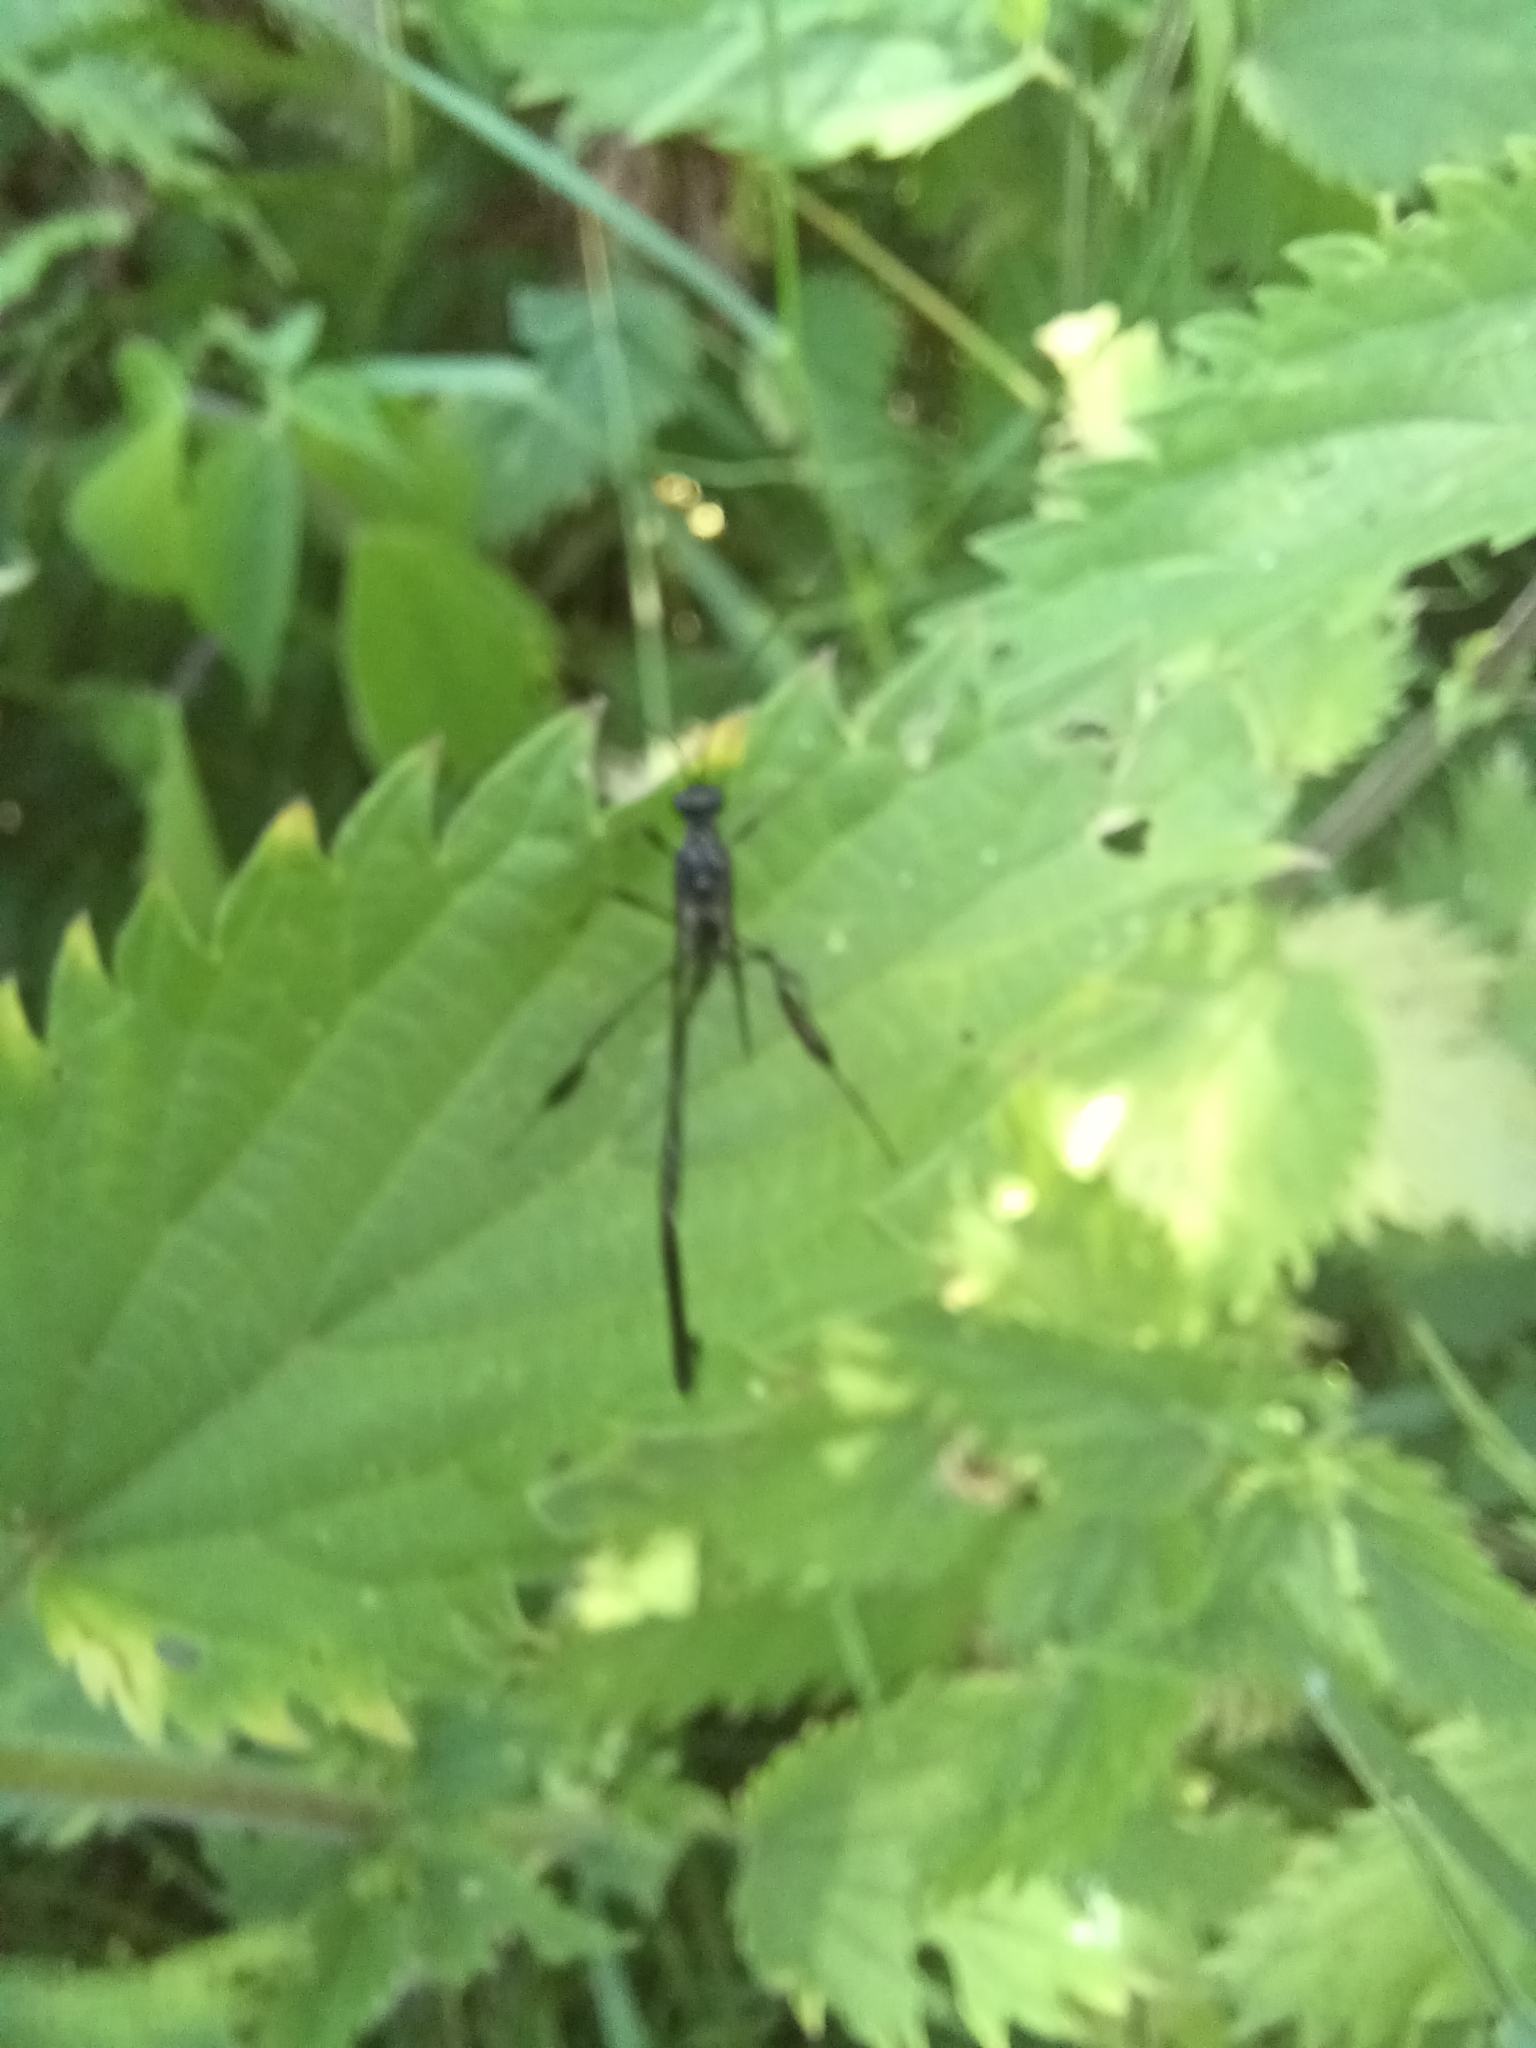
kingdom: Animalia
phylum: Arthropoda
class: Insecta
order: Hymenoptera
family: Pelecinidae
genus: Pelecinus
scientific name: Pelecinus polyturator
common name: American pelecinid wasp
